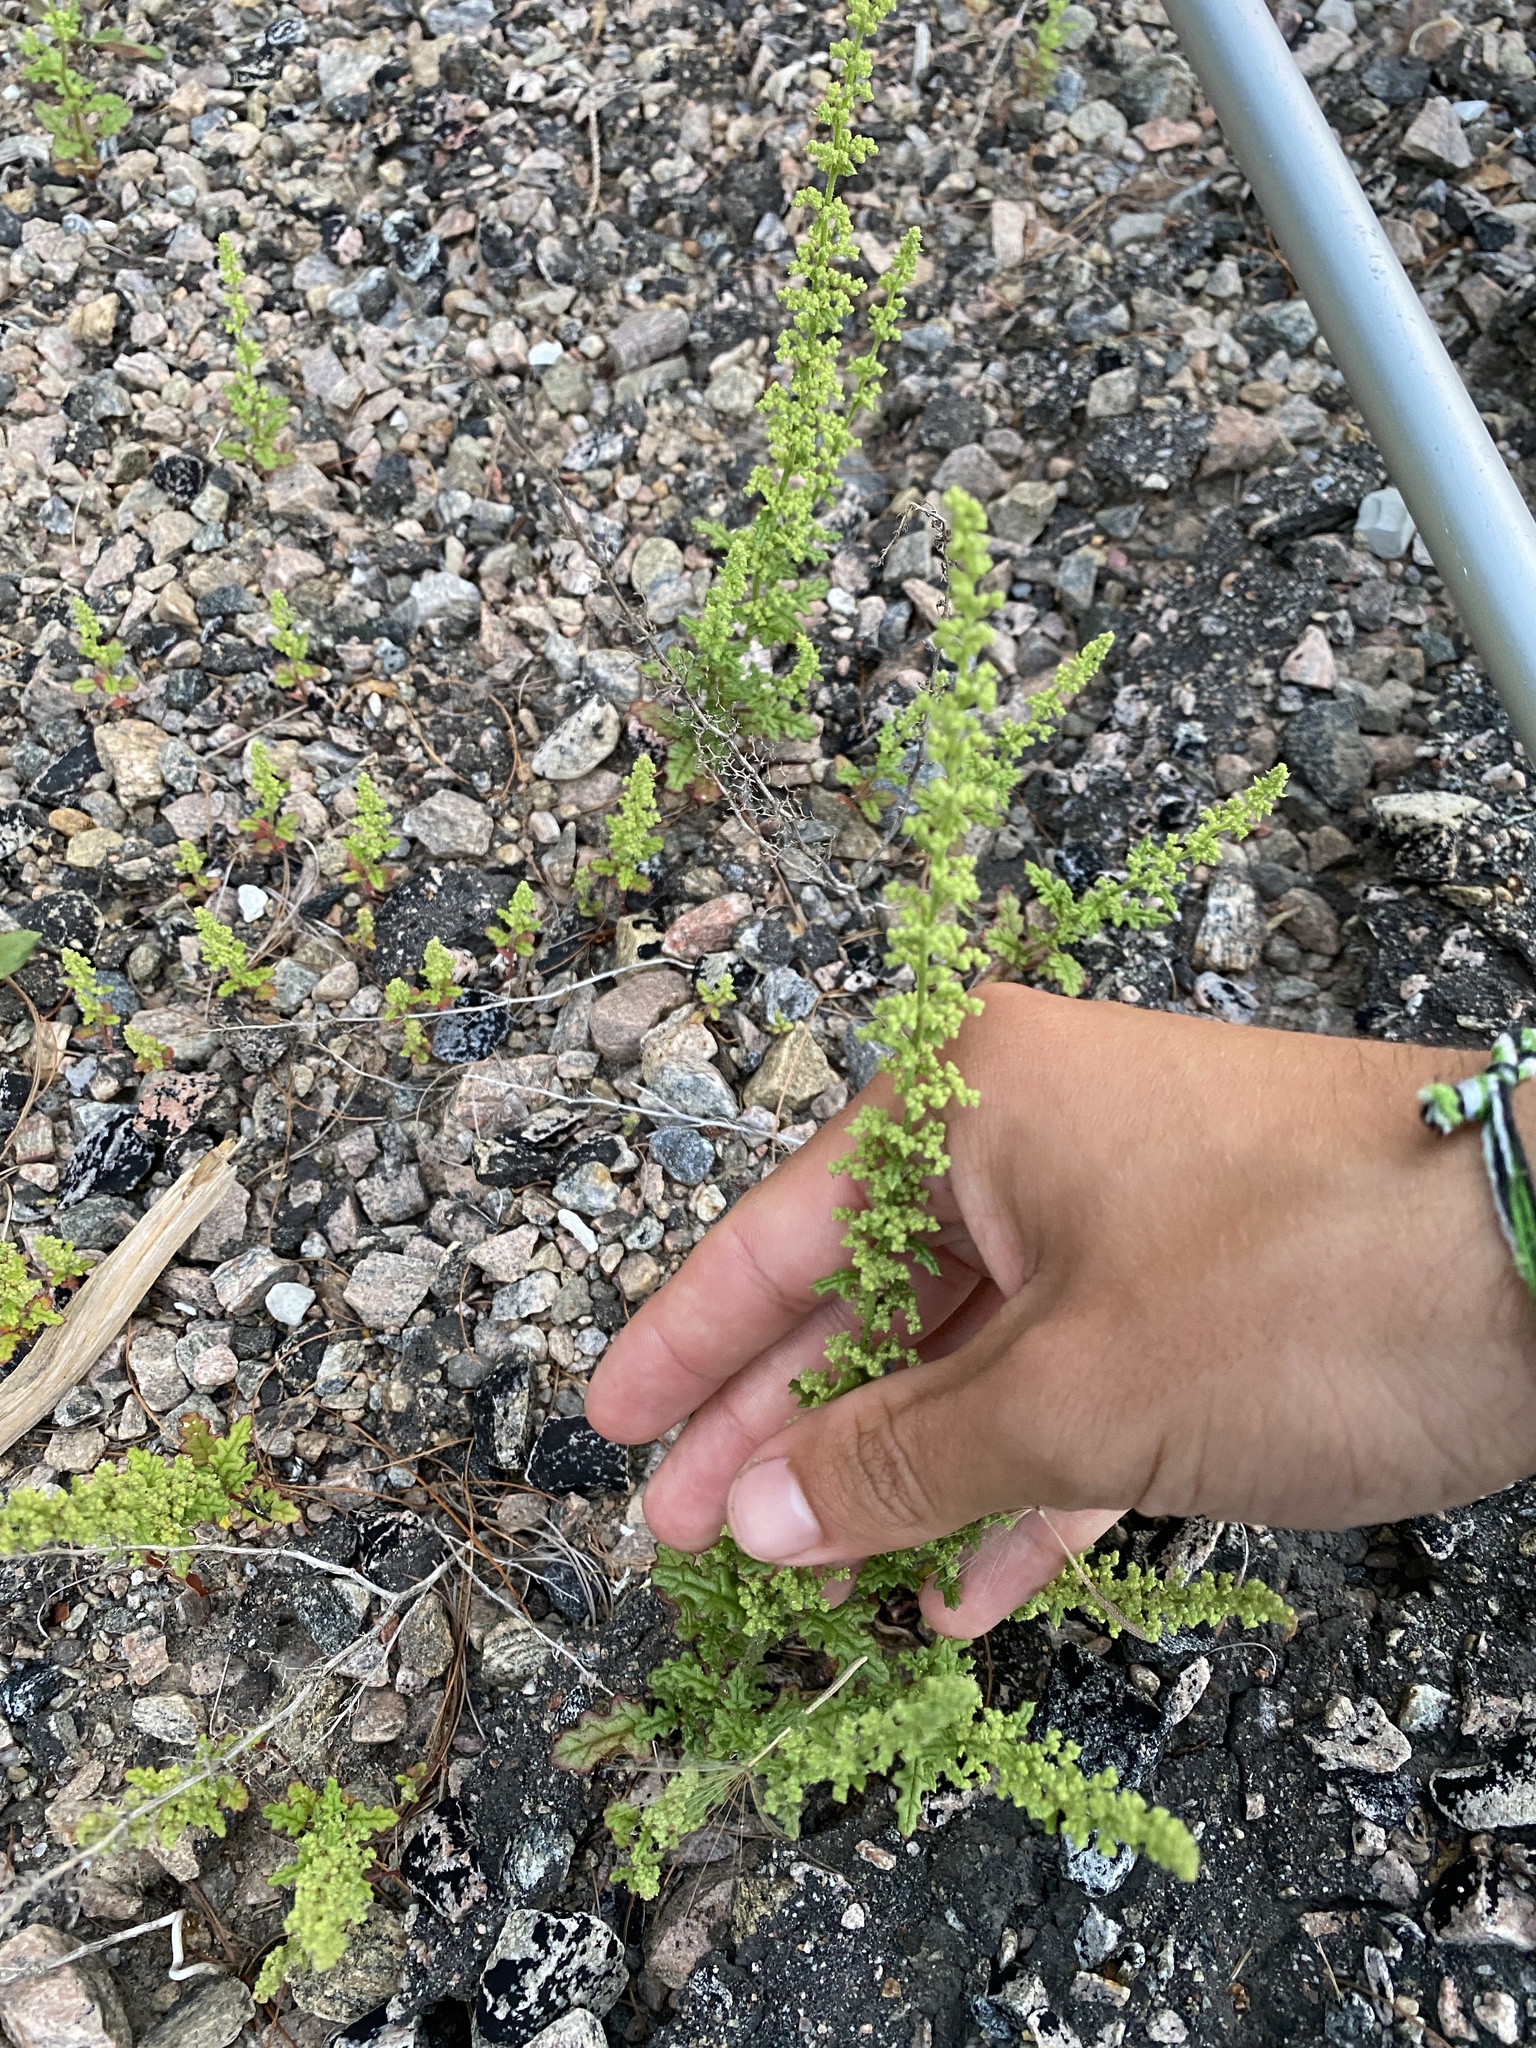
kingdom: Plantae
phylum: Tracheophyta
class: Magnoliopsida
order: Caryophyllales
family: Amaranthaceae
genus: Dysphania
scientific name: Dysphania botrys
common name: Feather-geranium
